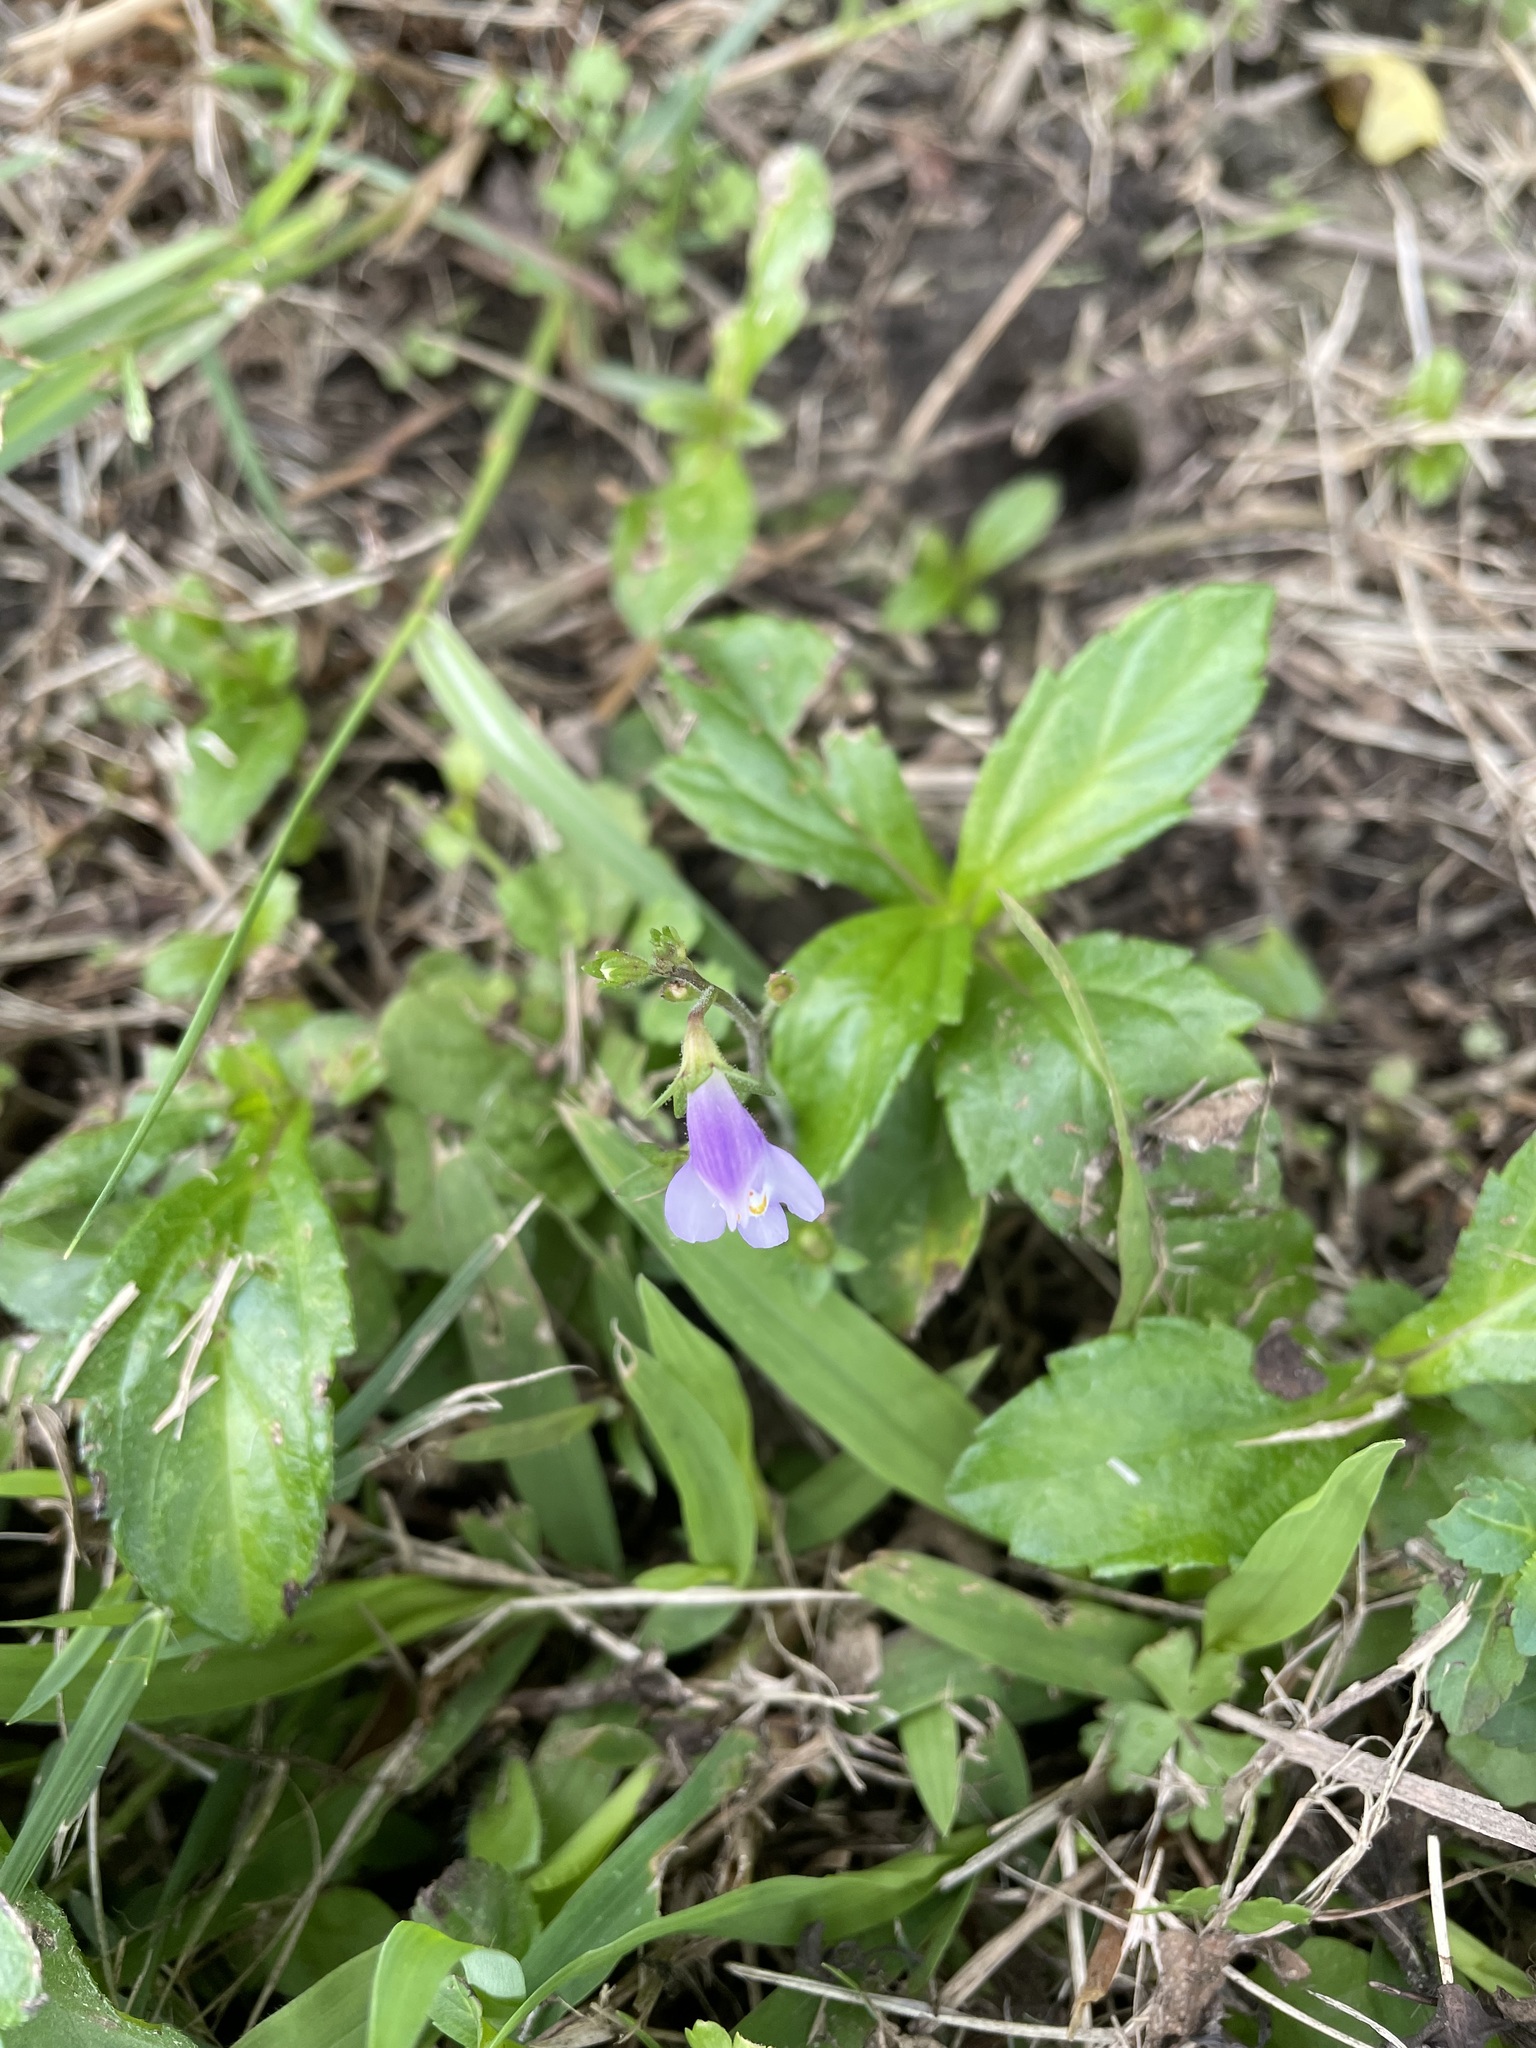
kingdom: Plantae
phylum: Tracheophyta
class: Magnoliopsida
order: Lamiales
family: Mazaceae
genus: Mazus
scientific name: Mazus pumilus
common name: Japanese mazus
